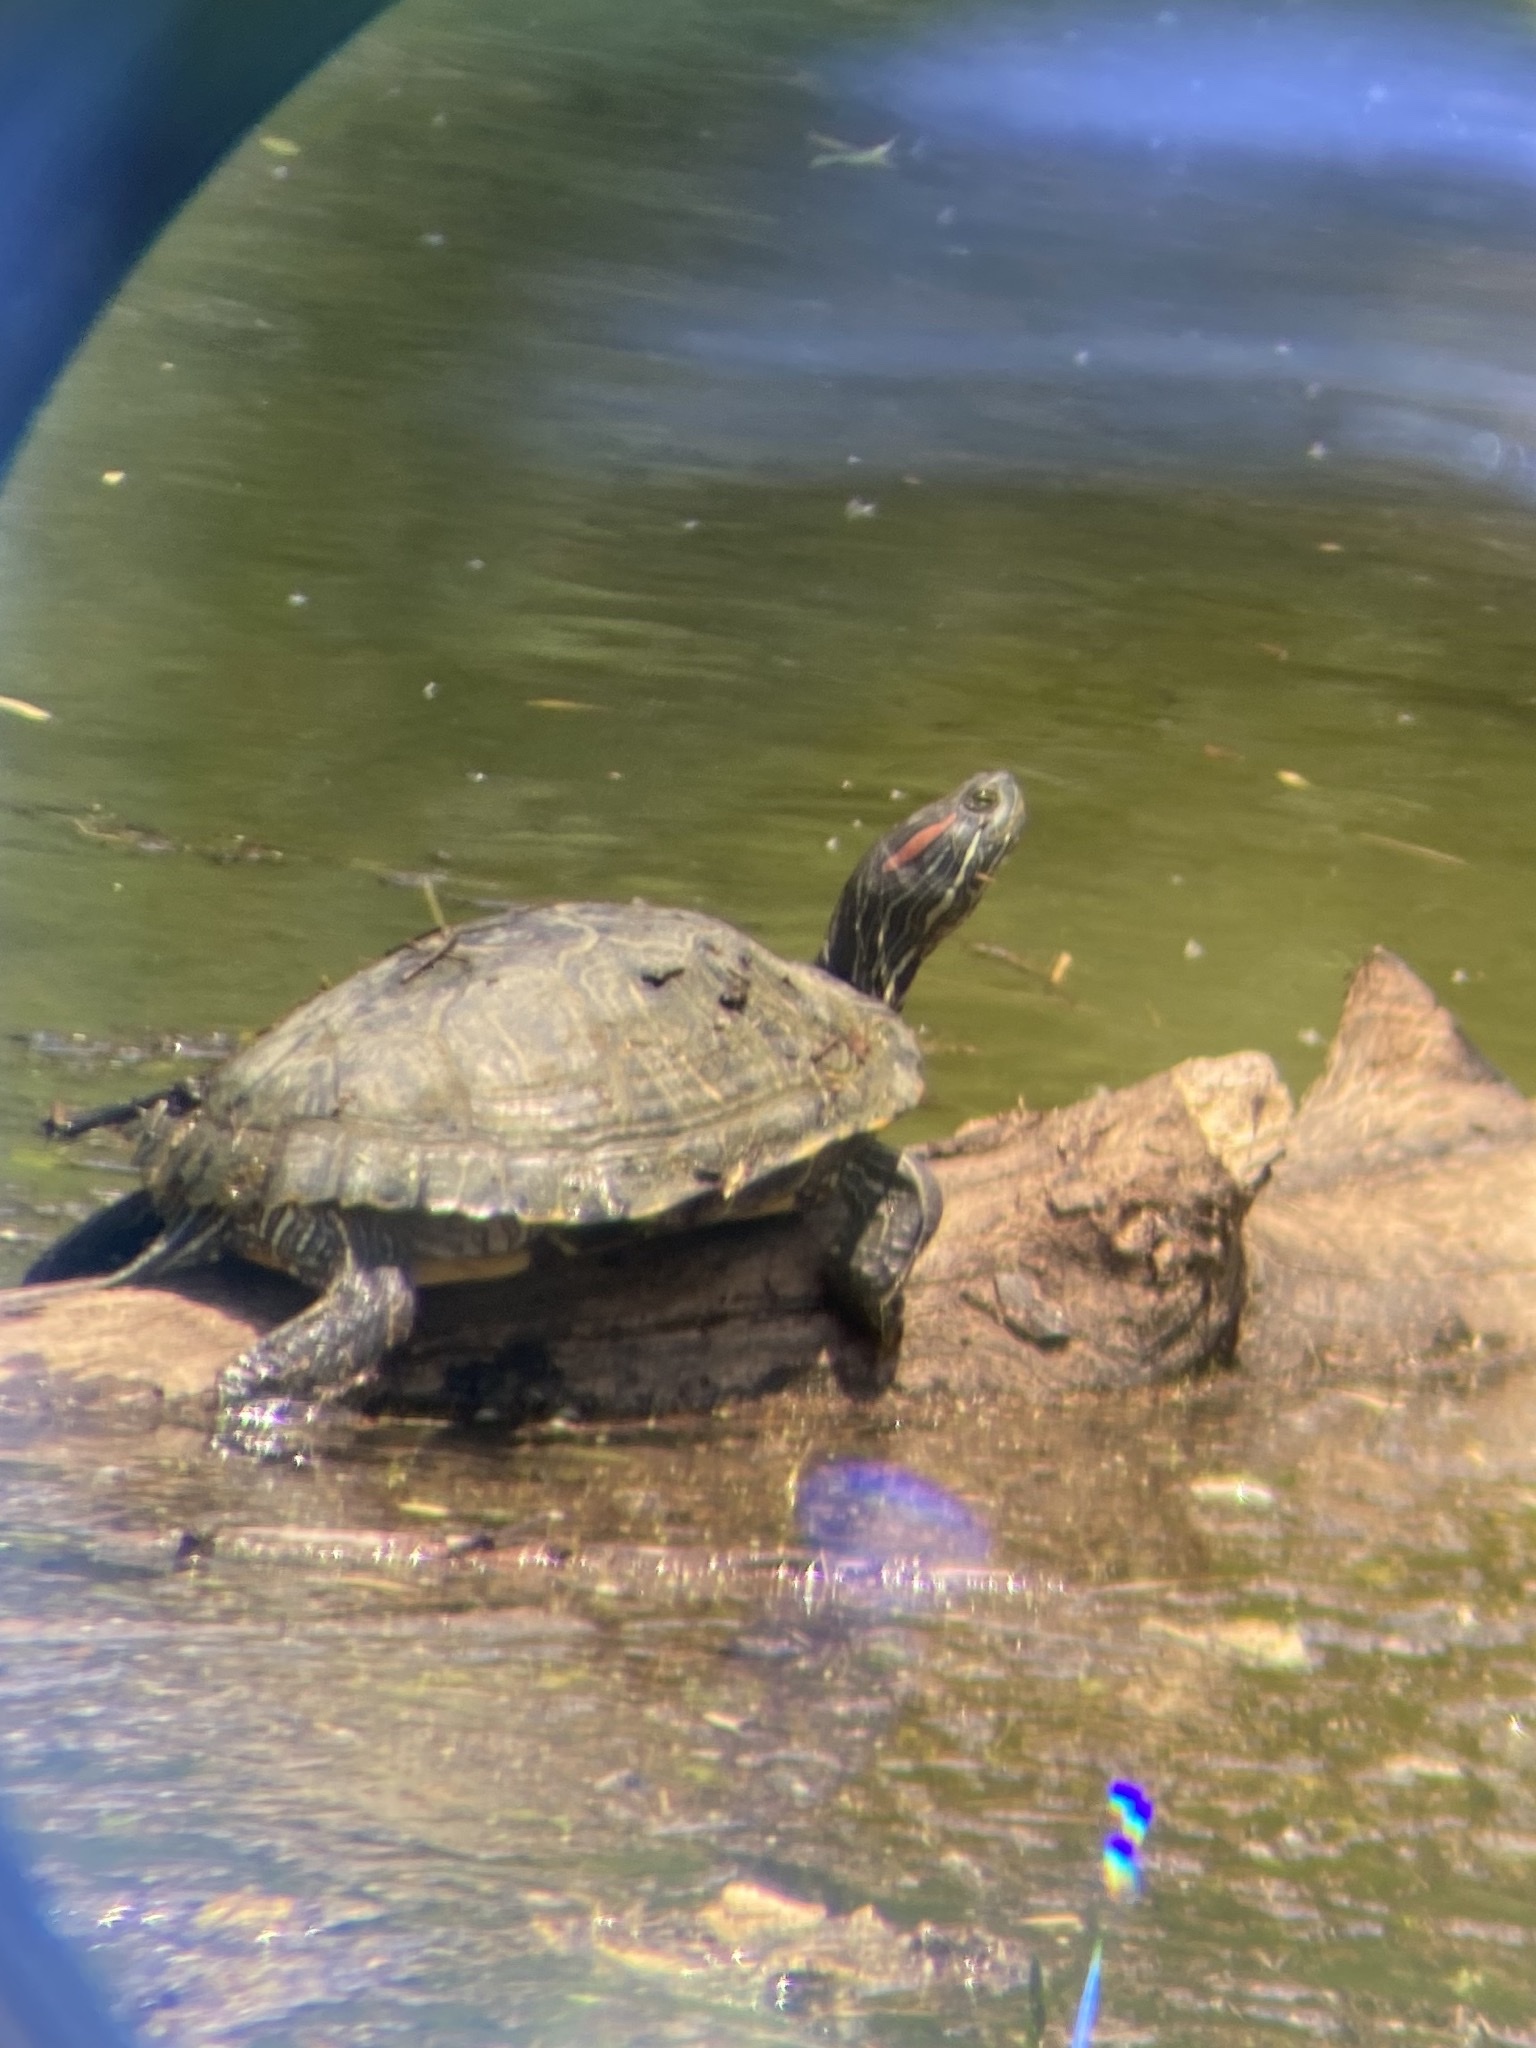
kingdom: Animalia
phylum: Chordata
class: Testudines
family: Emydidae
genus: Trachemys
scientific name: Trachemys scripta
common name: Slider
